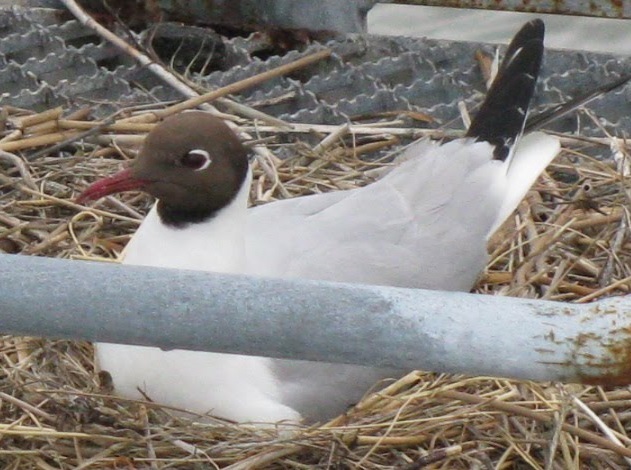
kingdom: Animalia
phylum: Chordata
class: Aves
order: Charadriiformes
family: Laridae
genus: Chroicocephalus
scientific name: Chroicocephalus ridibundus
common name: Black-headed gull
